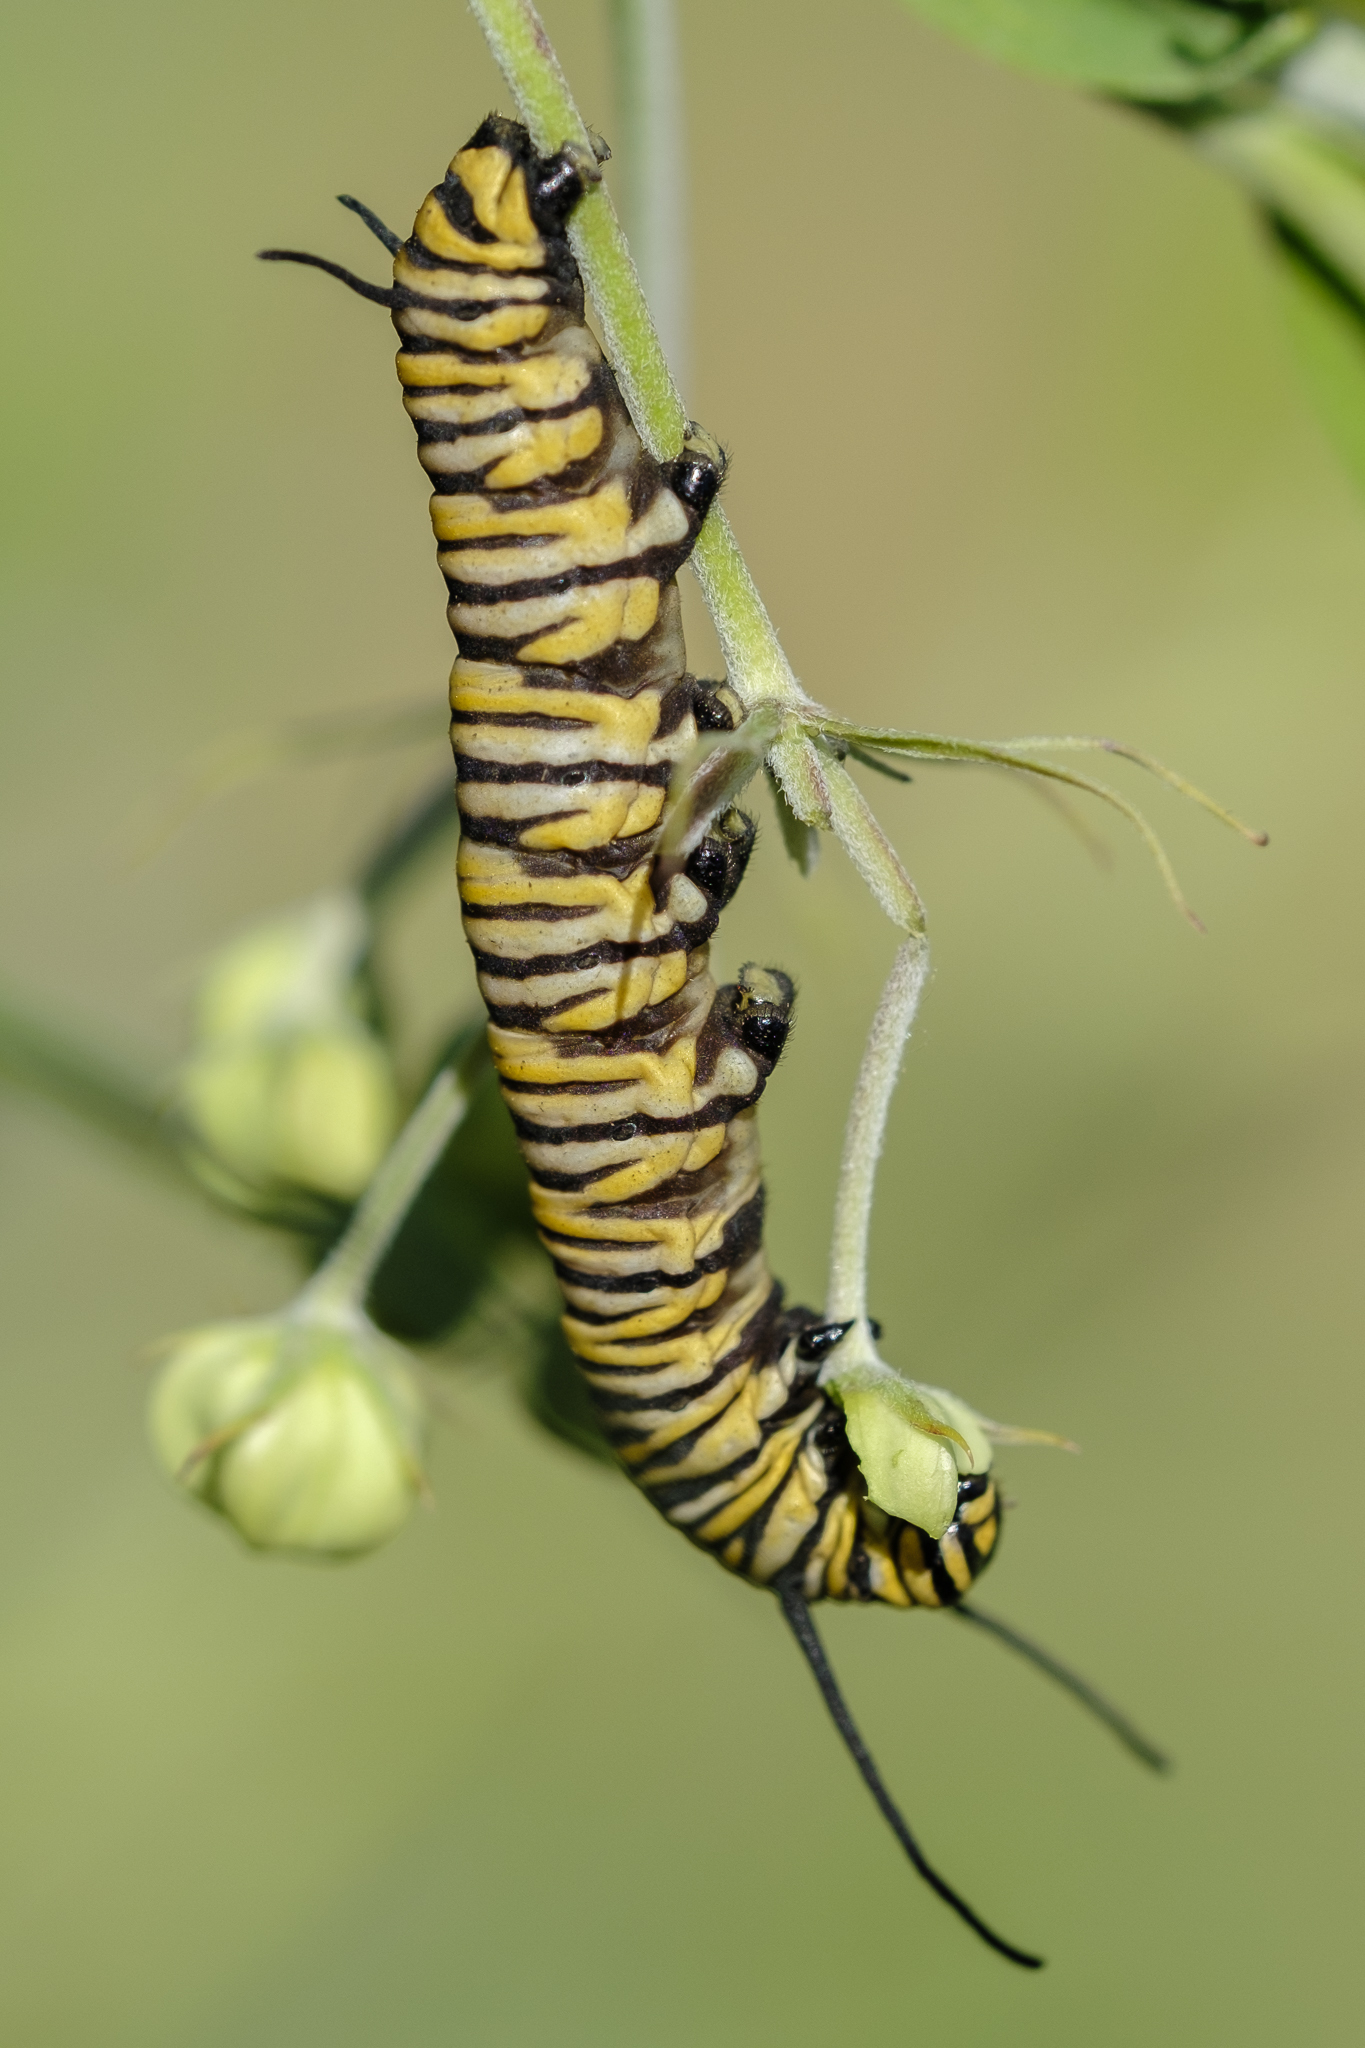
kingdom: Animalia
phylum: Arthropoda
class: Insecta
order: Lepidoptera
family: Nymphalidae
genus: Danaus
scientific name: Danaus plexippus
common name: Monarch
